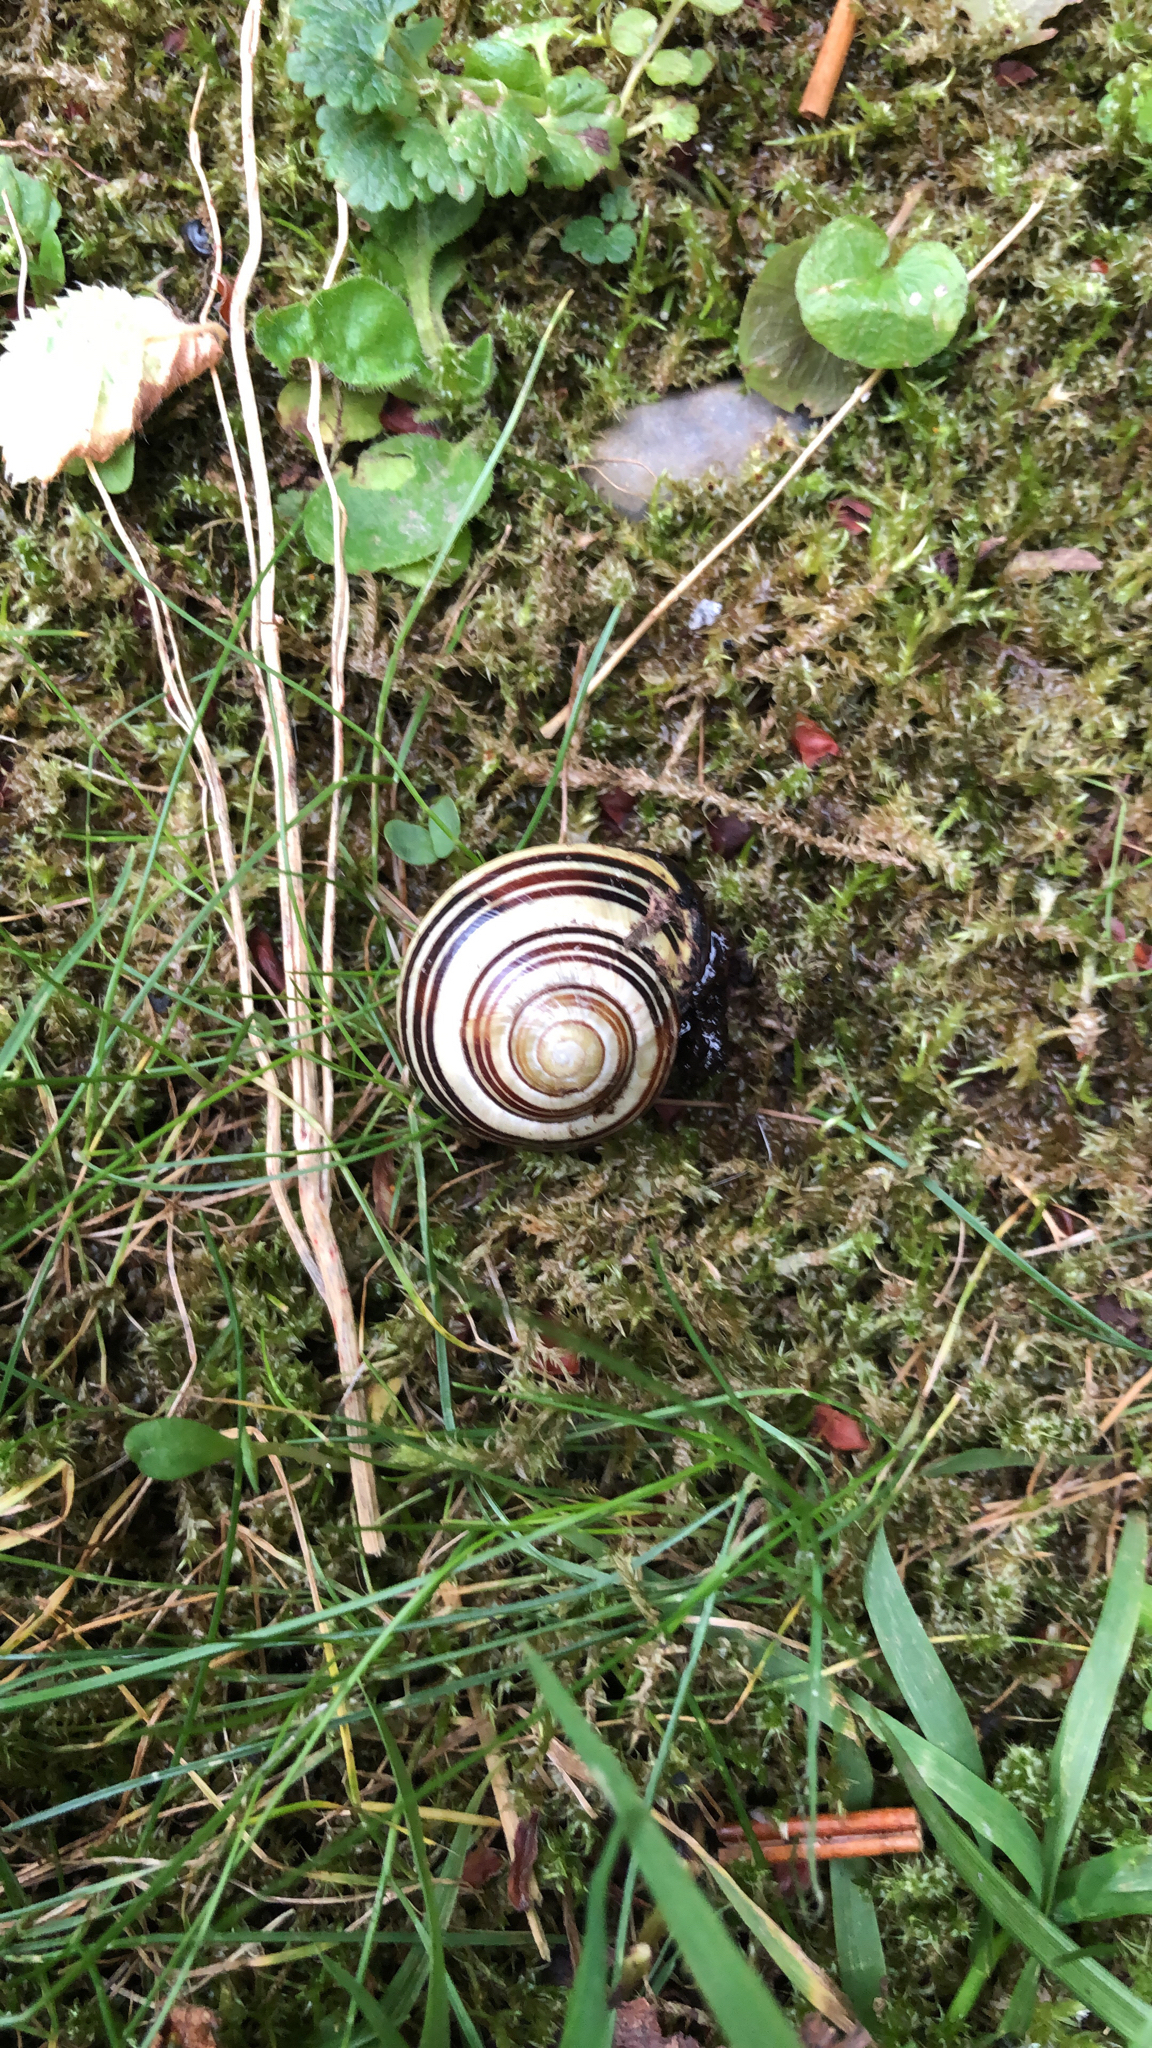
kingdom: Animalia
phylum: Mollusca
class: Gastropoda
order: Stylommatophora
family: Helicidae
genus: Cepaea
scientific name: Cepaea nemoralis
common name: Grovesnail
